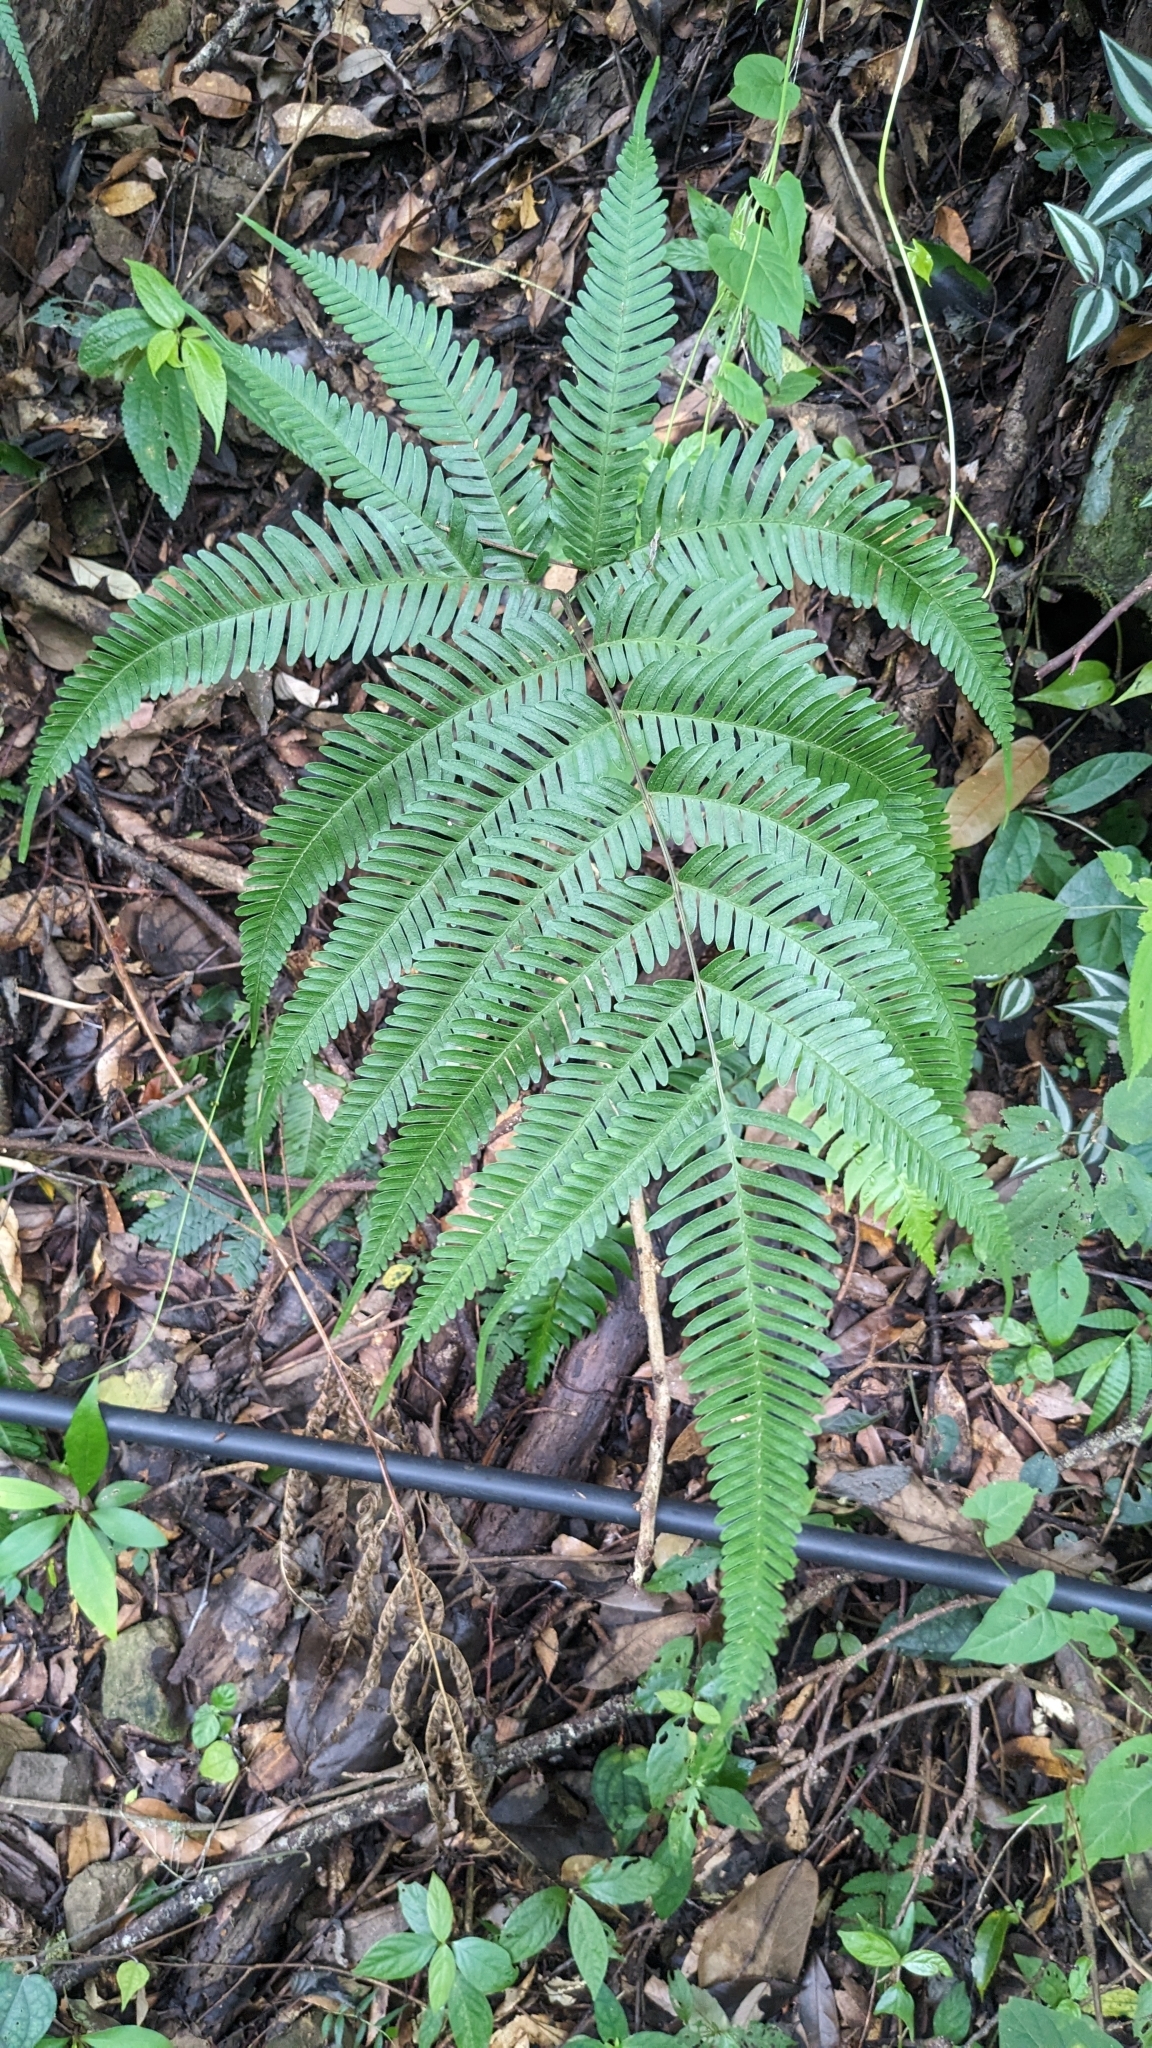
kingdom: Plantae
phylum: Tracheophyta
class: Polypodiopsida
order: Polypodiales
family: Pteridaceae
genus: Pteris
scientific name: Pteris setulosocostulata
